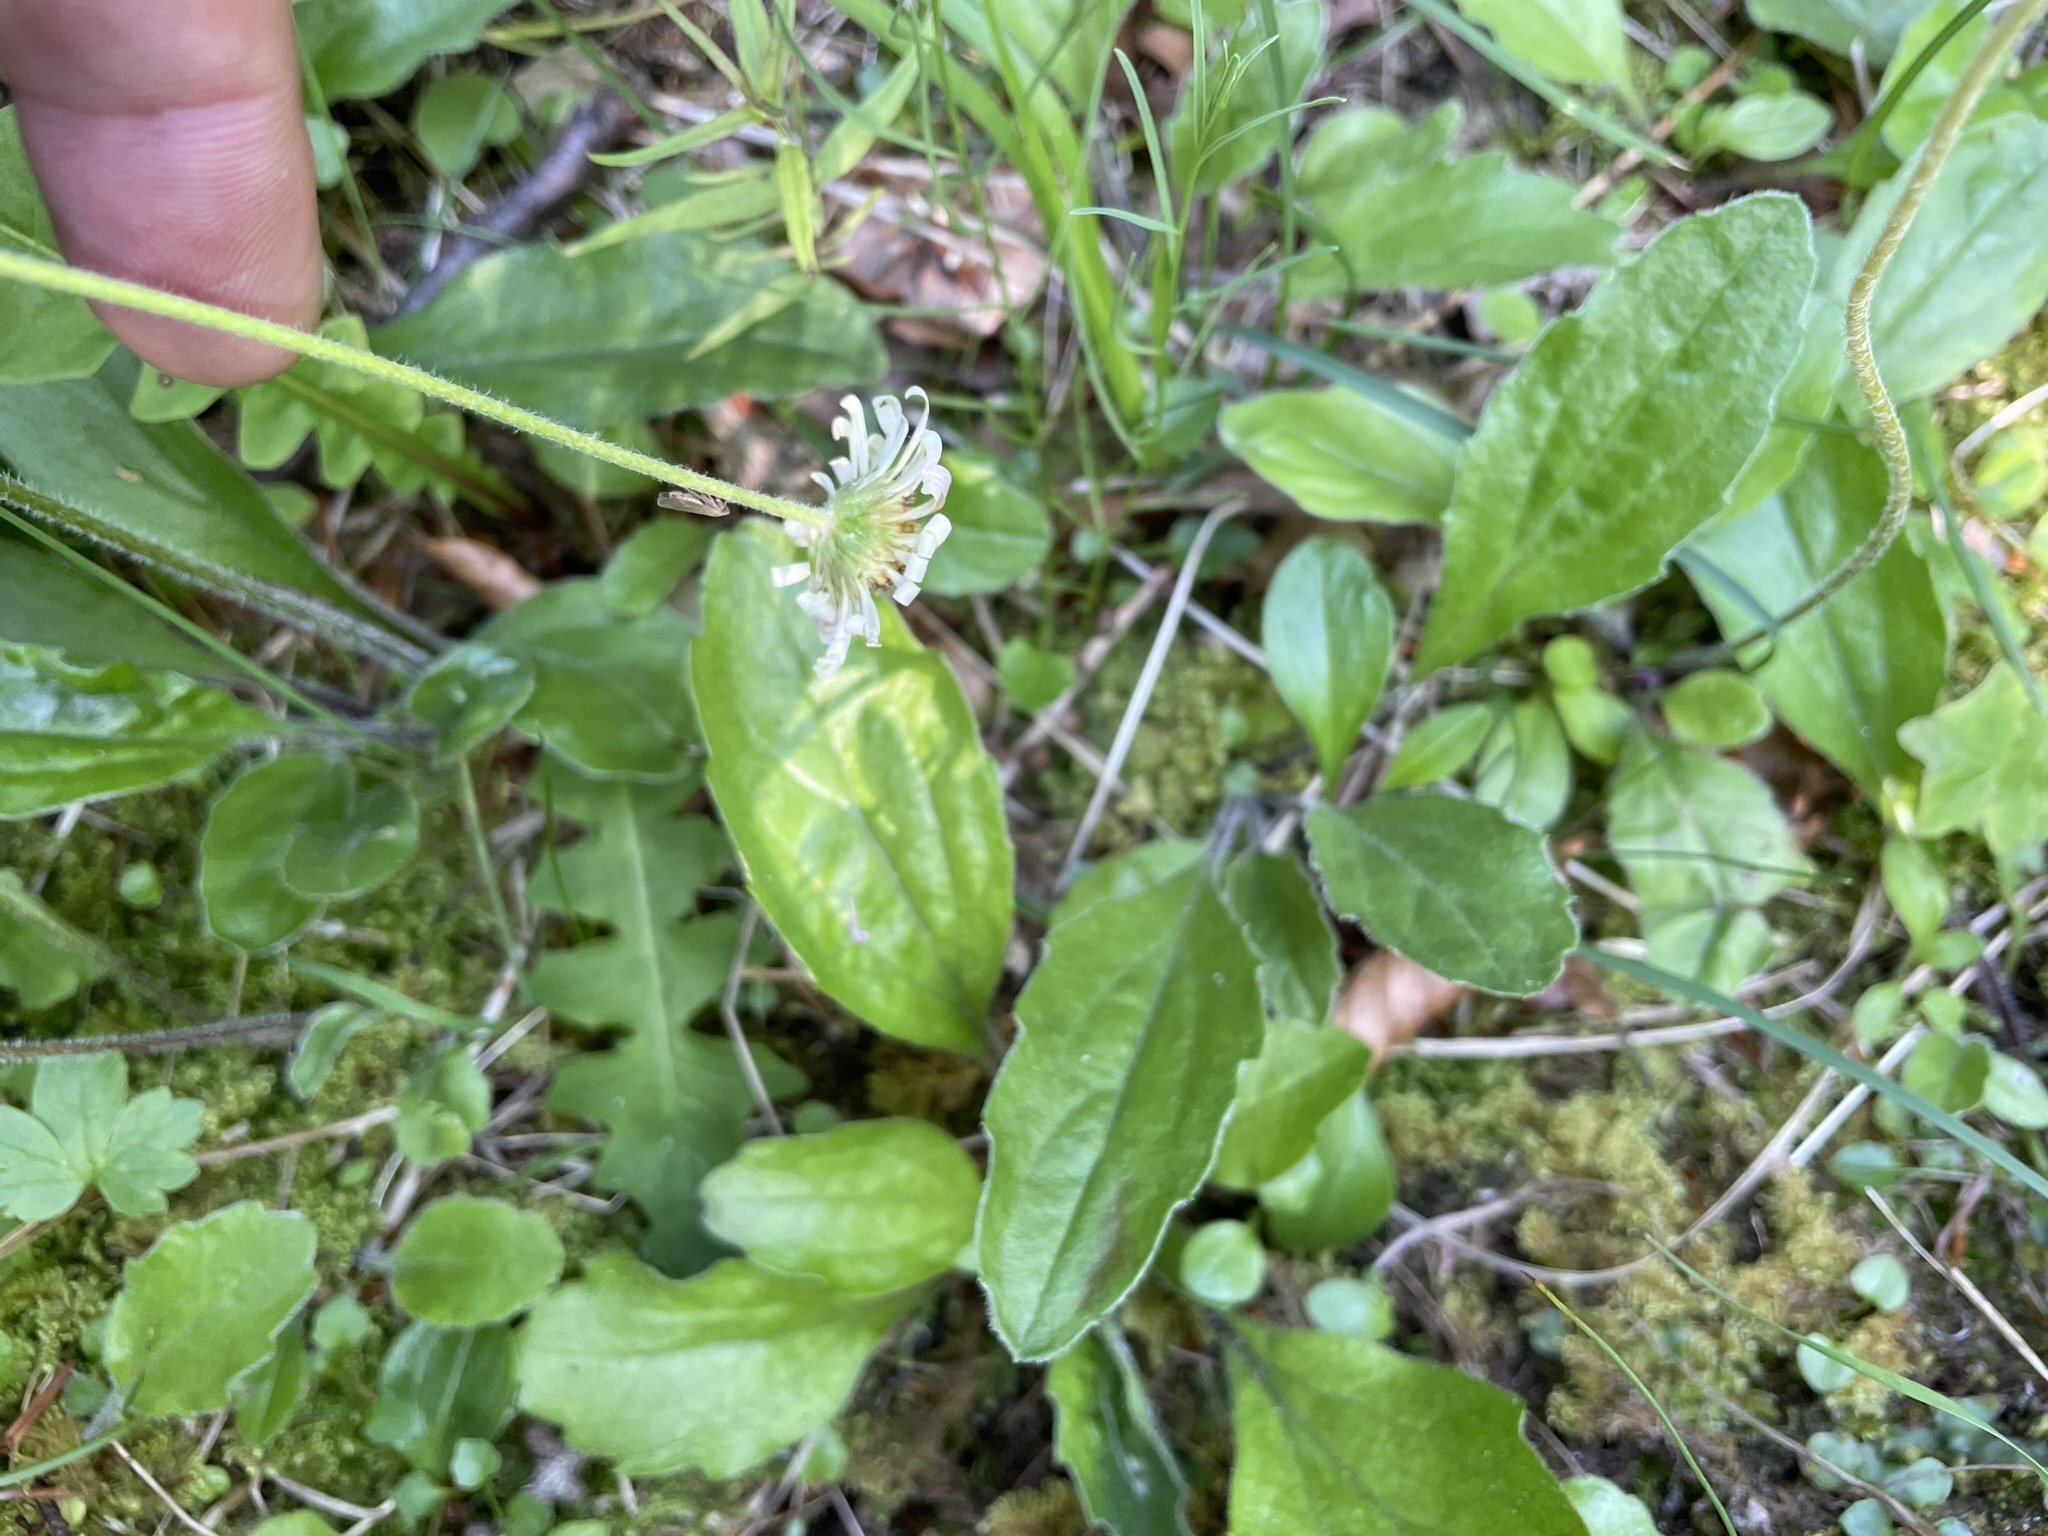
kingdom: Plantae
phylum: Tracheophyta
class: Magnoliopsida
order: Asterales
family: Asteraceae
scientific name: Asteraceae
